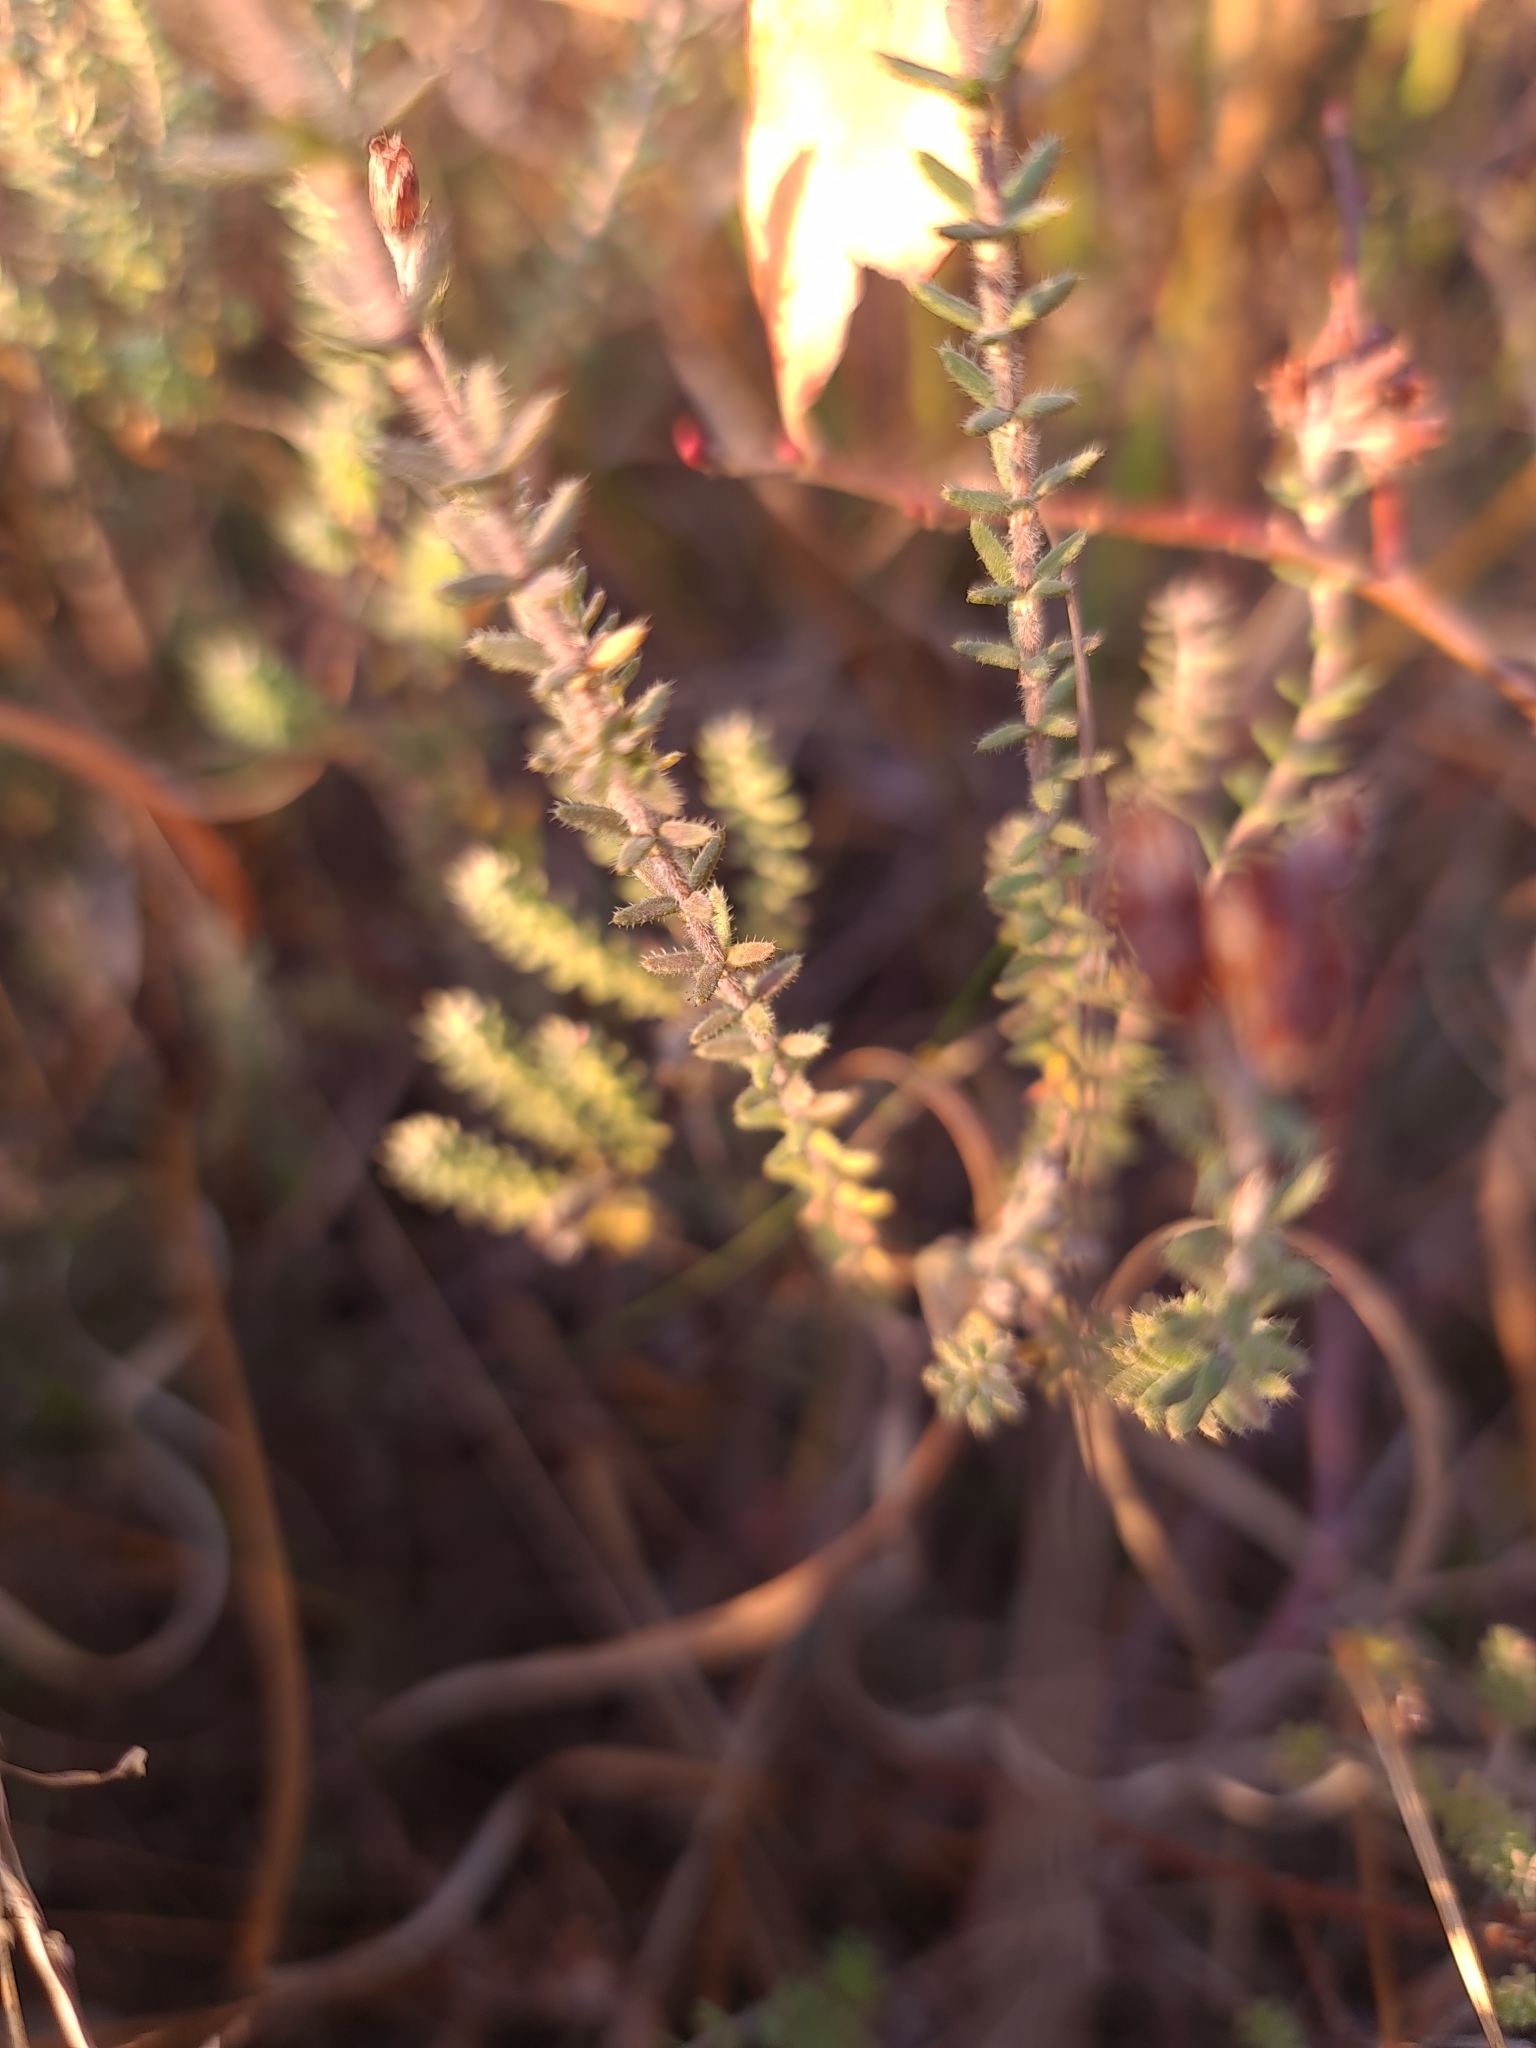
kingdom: Plantae
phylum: Tracheophyta
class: Magnoliopsida
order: Ericales
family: Ericaceae
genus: Erica
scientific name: Erica tetralix
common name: Cross-leaved heath
